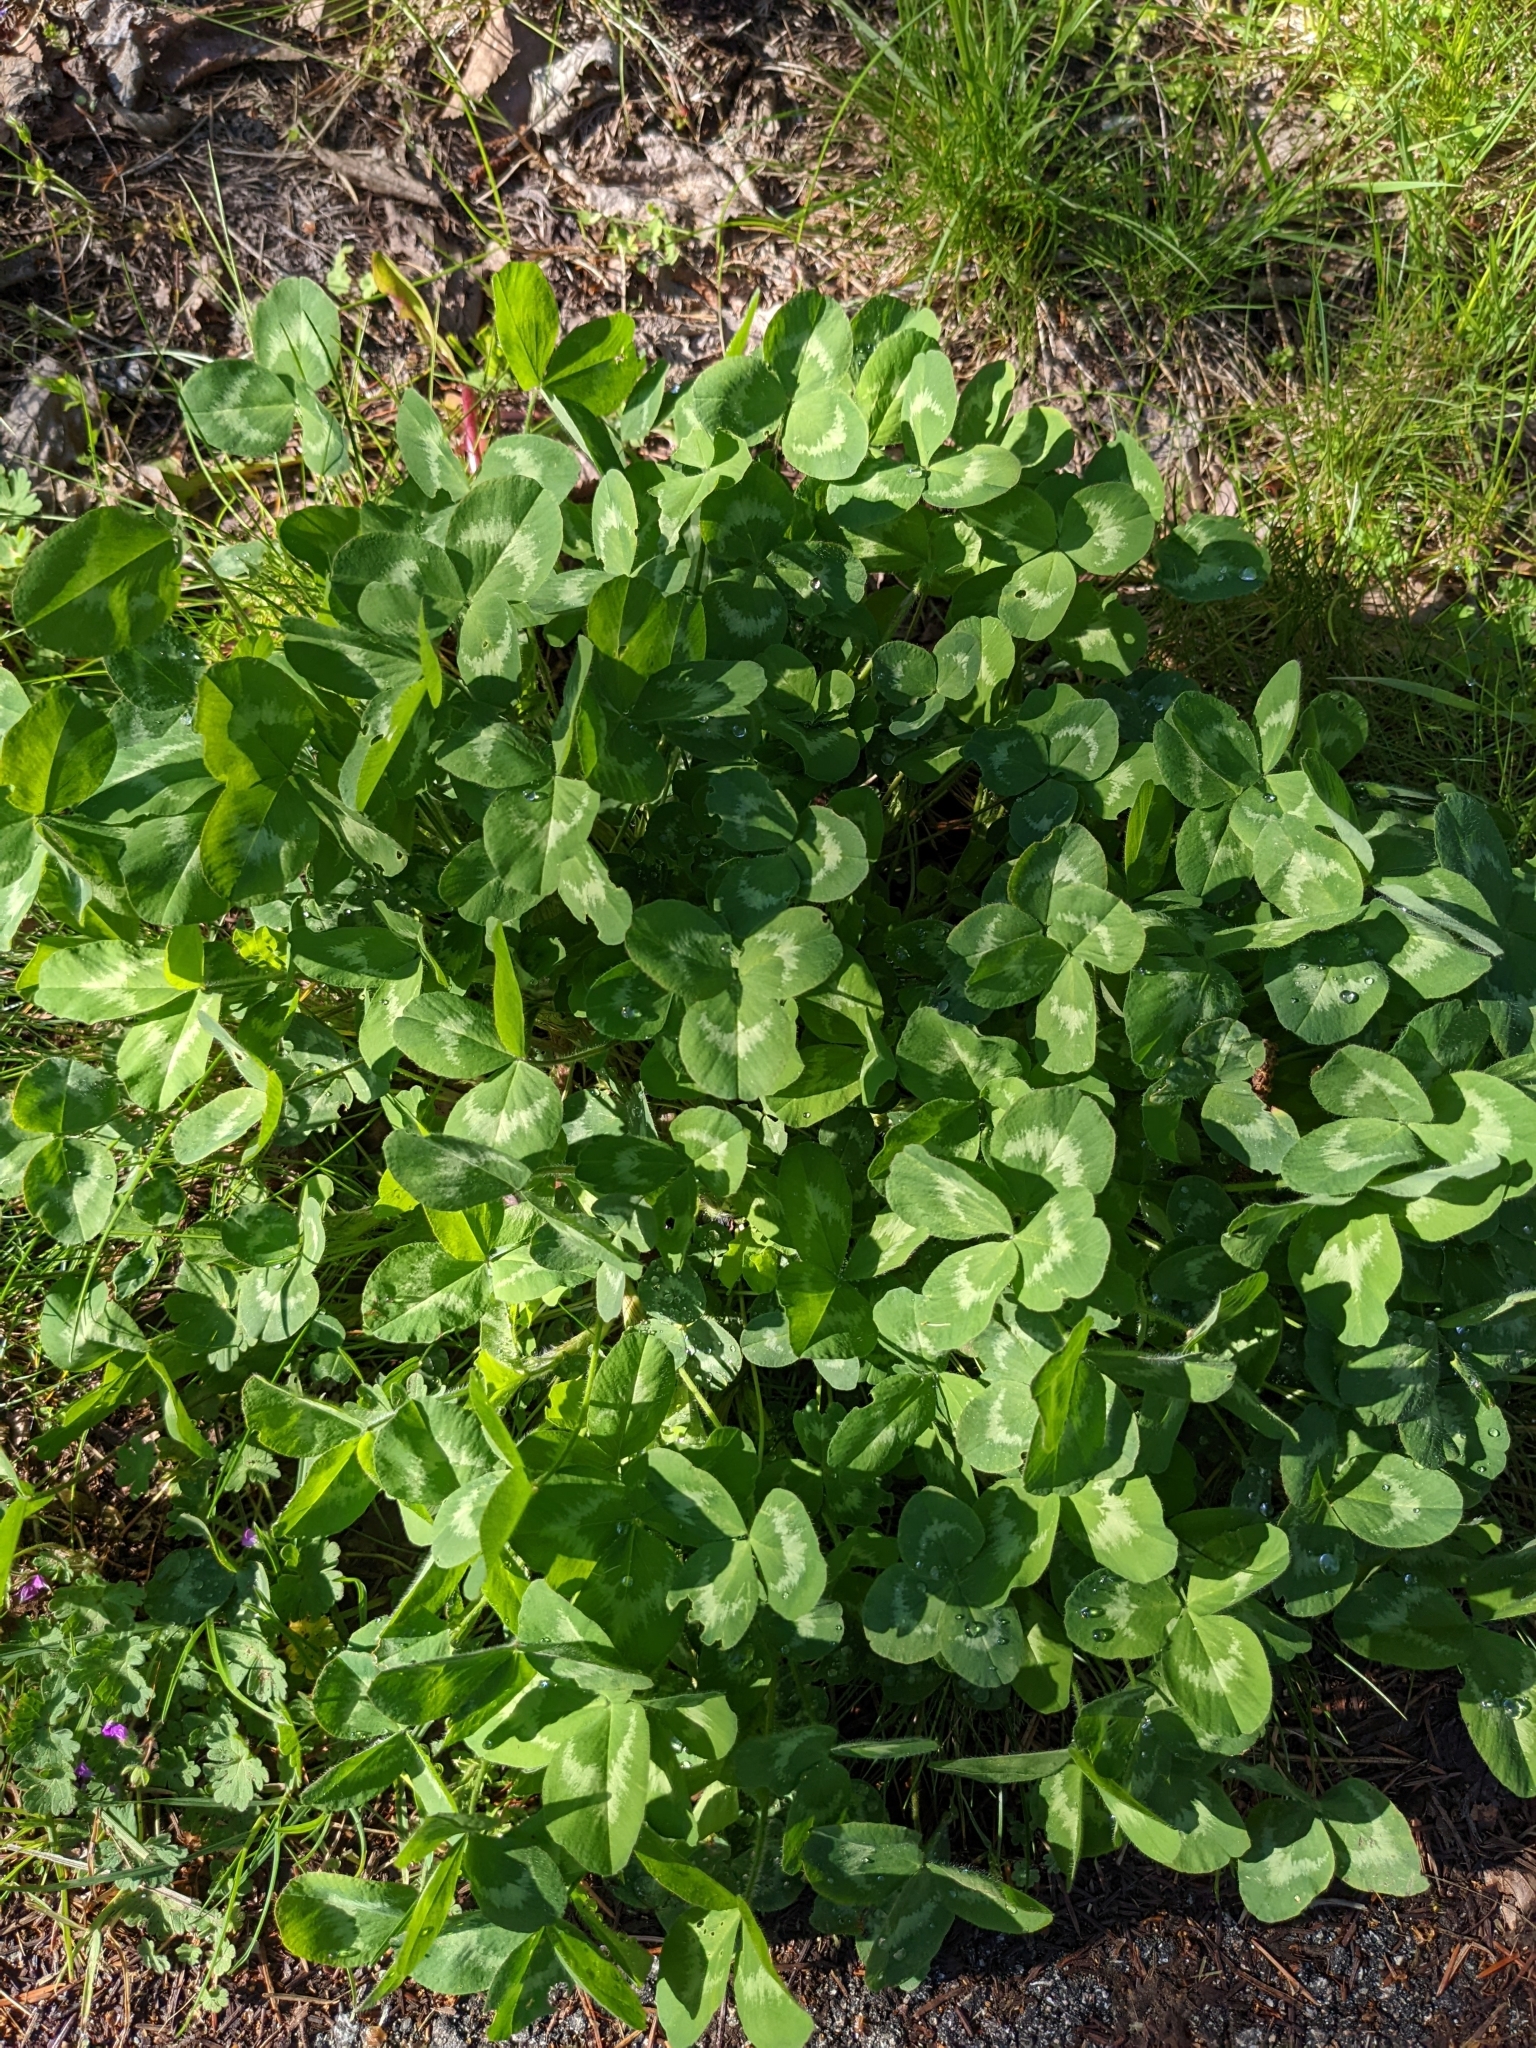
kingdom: Plantae
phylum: Tracheophyta
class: Magnoliopsida
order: Fabales
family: Fabaceae
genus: Trifolium
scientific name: Trifolium pratense
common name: Red clover
